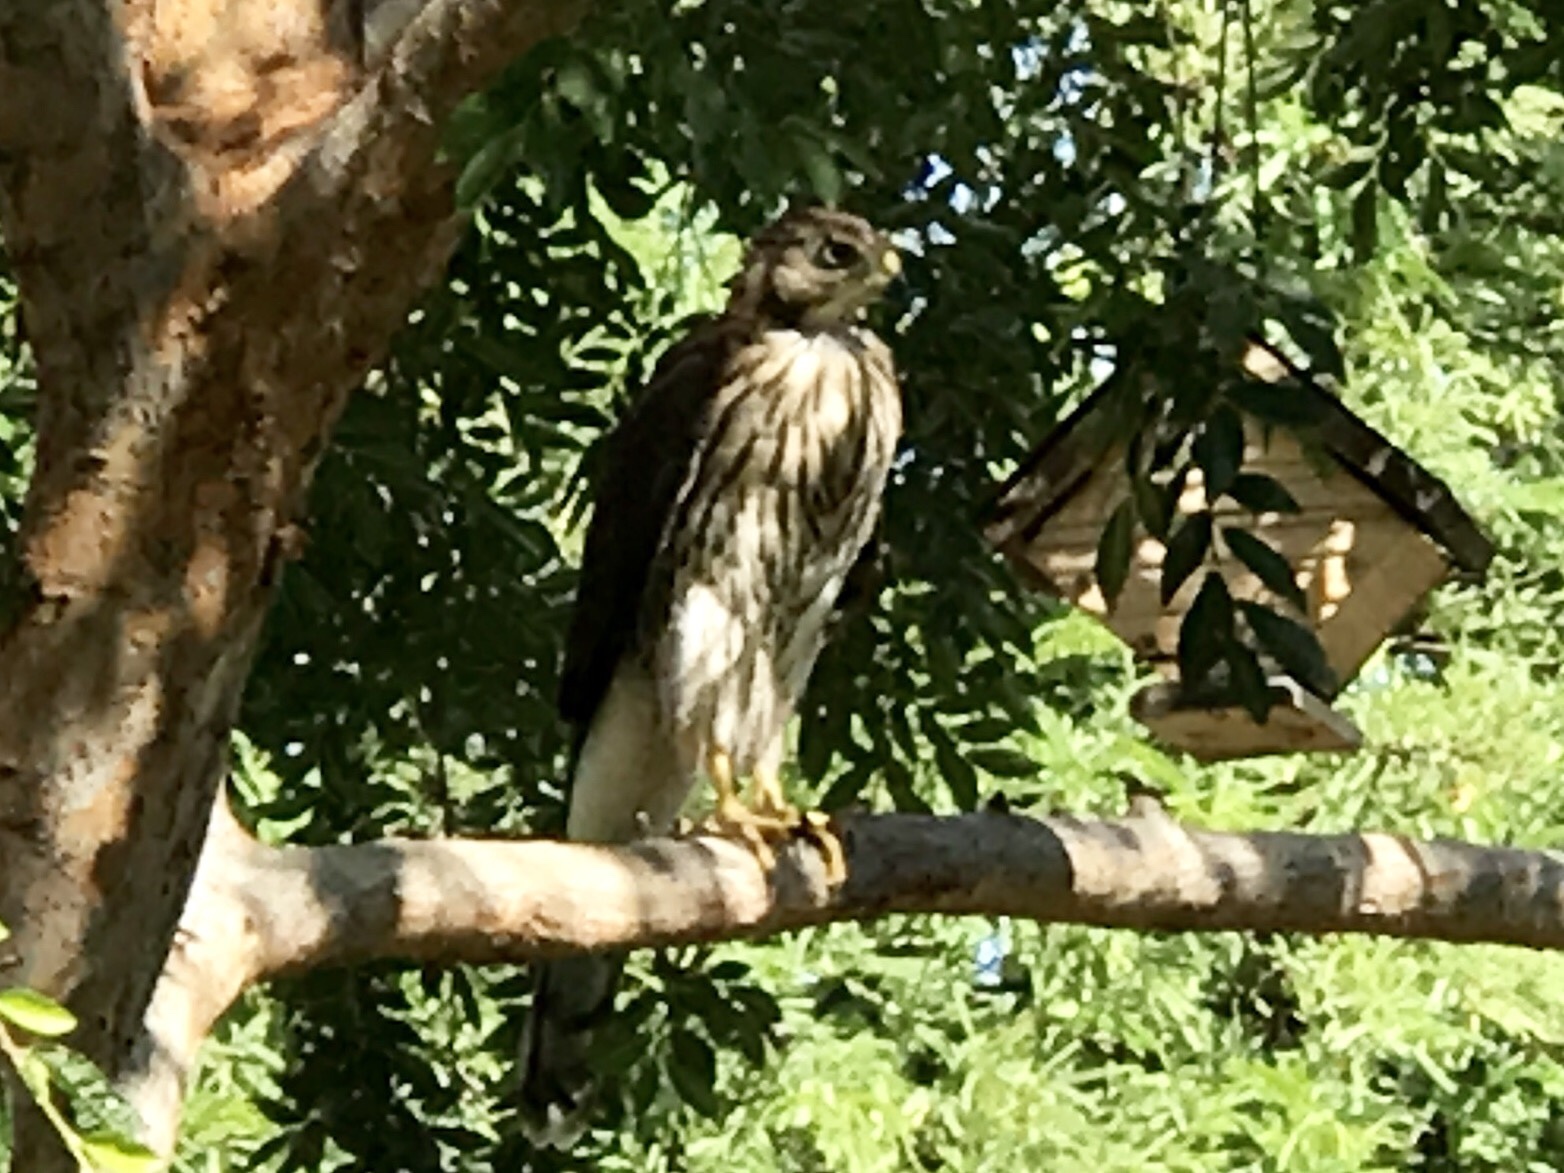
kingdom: Animalia
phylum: Chordata
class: Aves
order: Accipitriformes
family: Accipitridae
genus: Accipiter
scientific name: Accipiter cooperii
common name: Cooper's hawk
